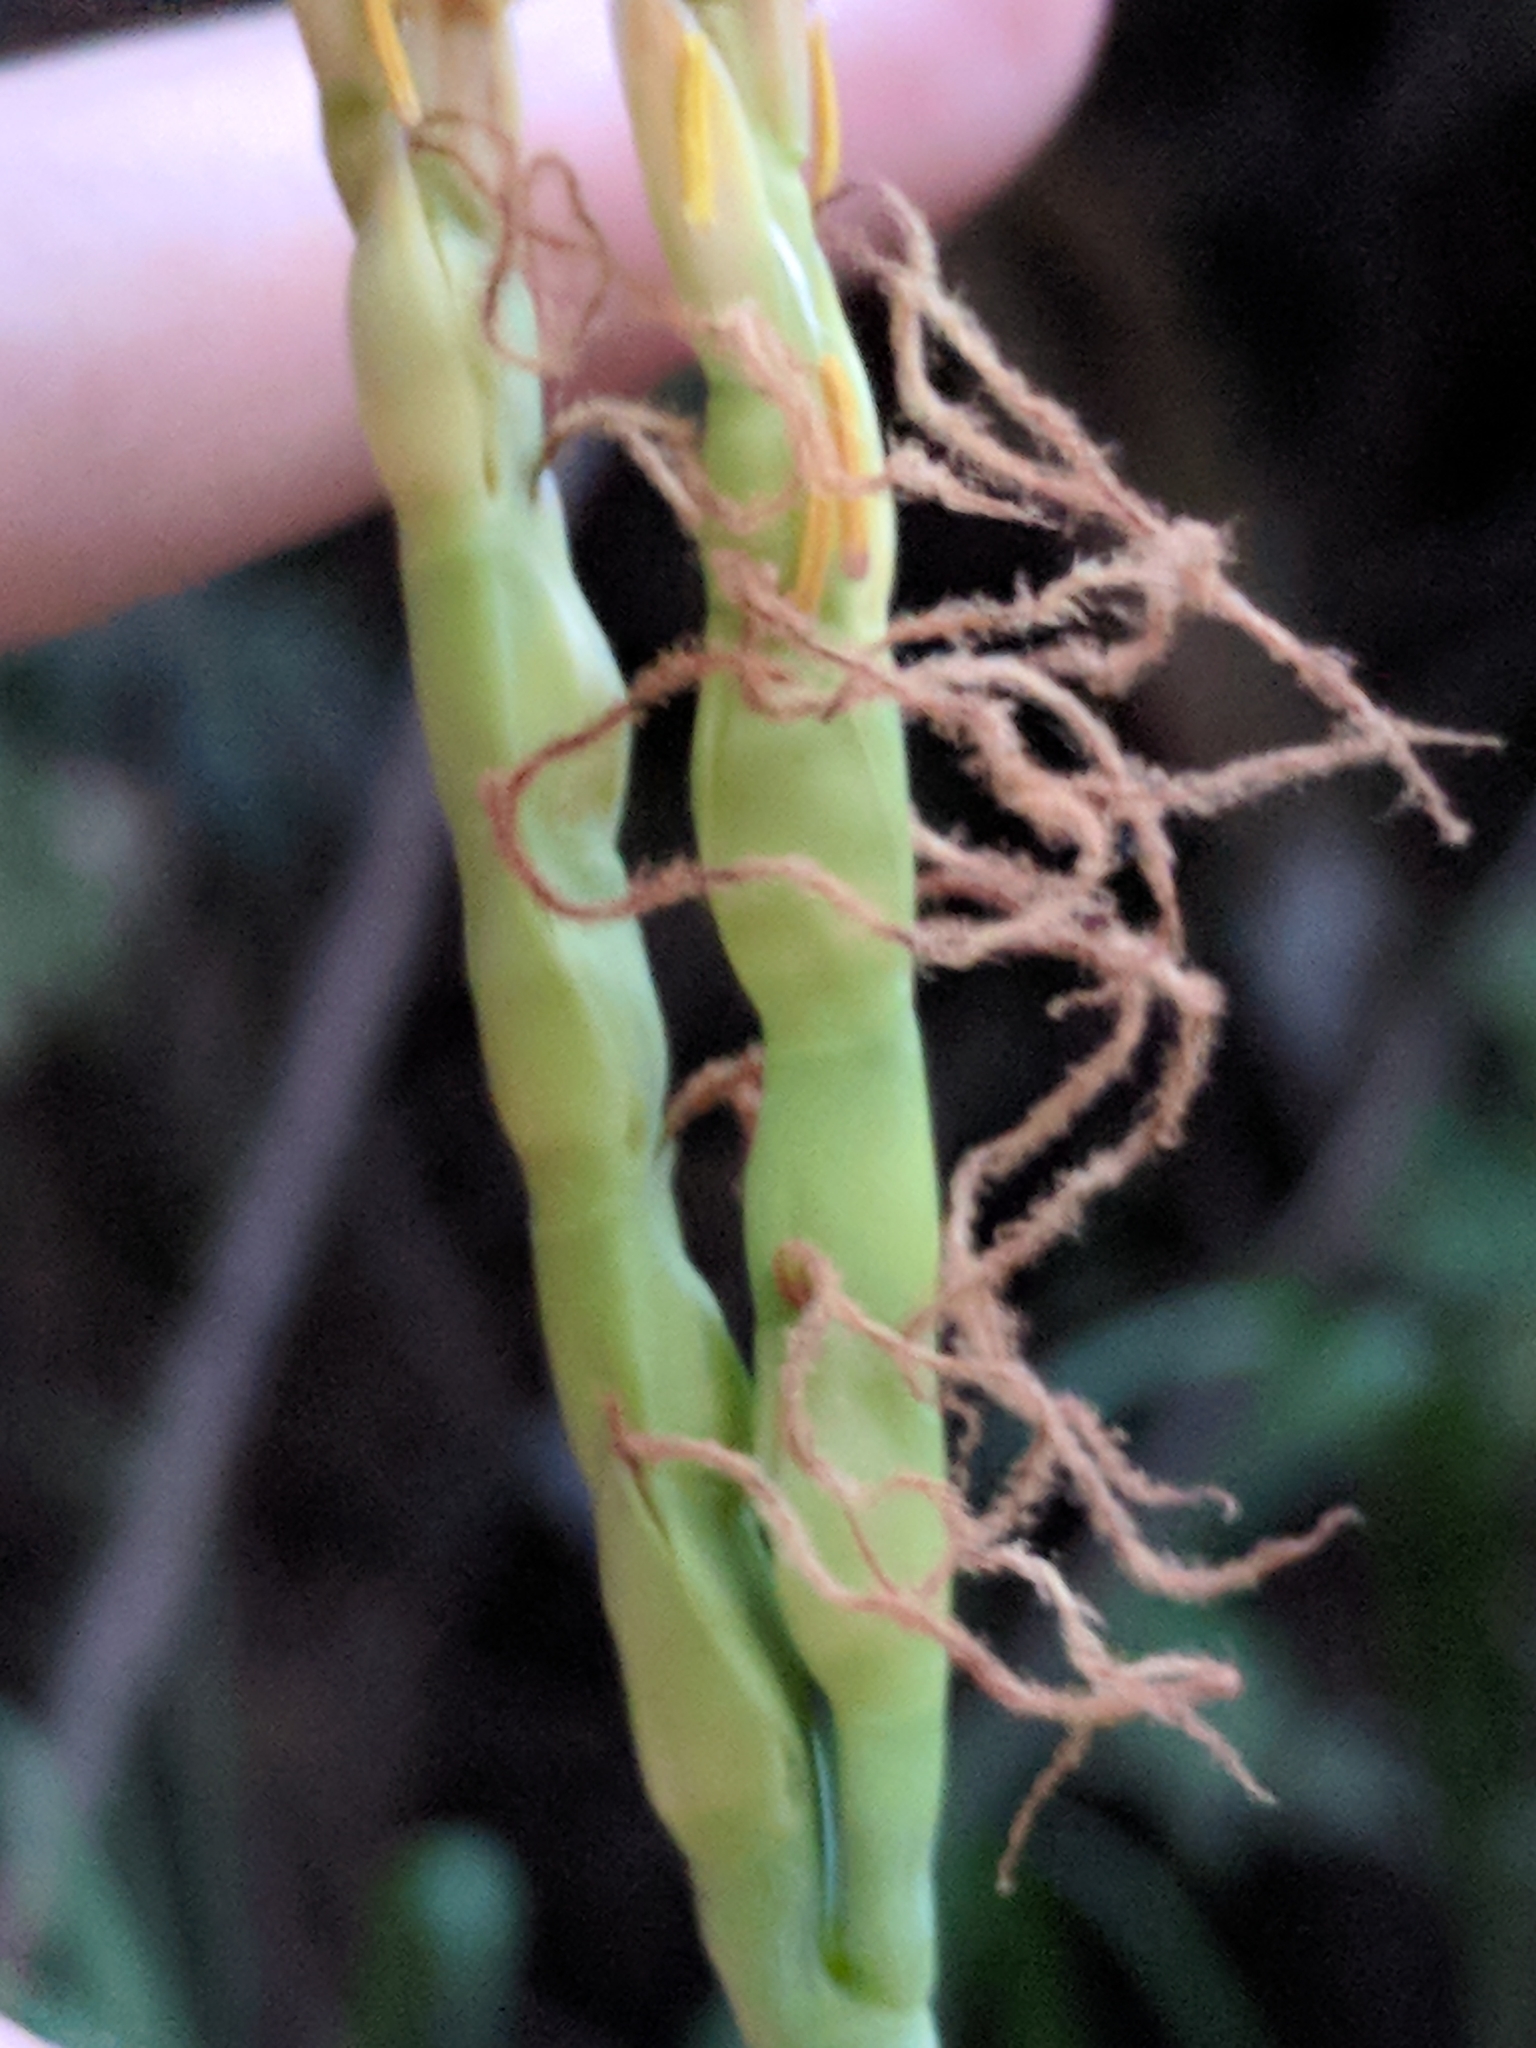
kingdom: Plantae
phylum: Tracheophyta
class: Liliopsida
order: Poales
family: Poaceae
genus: Tripsacum
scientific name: Tripsacum dactyloides
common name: Buffalo-grass
